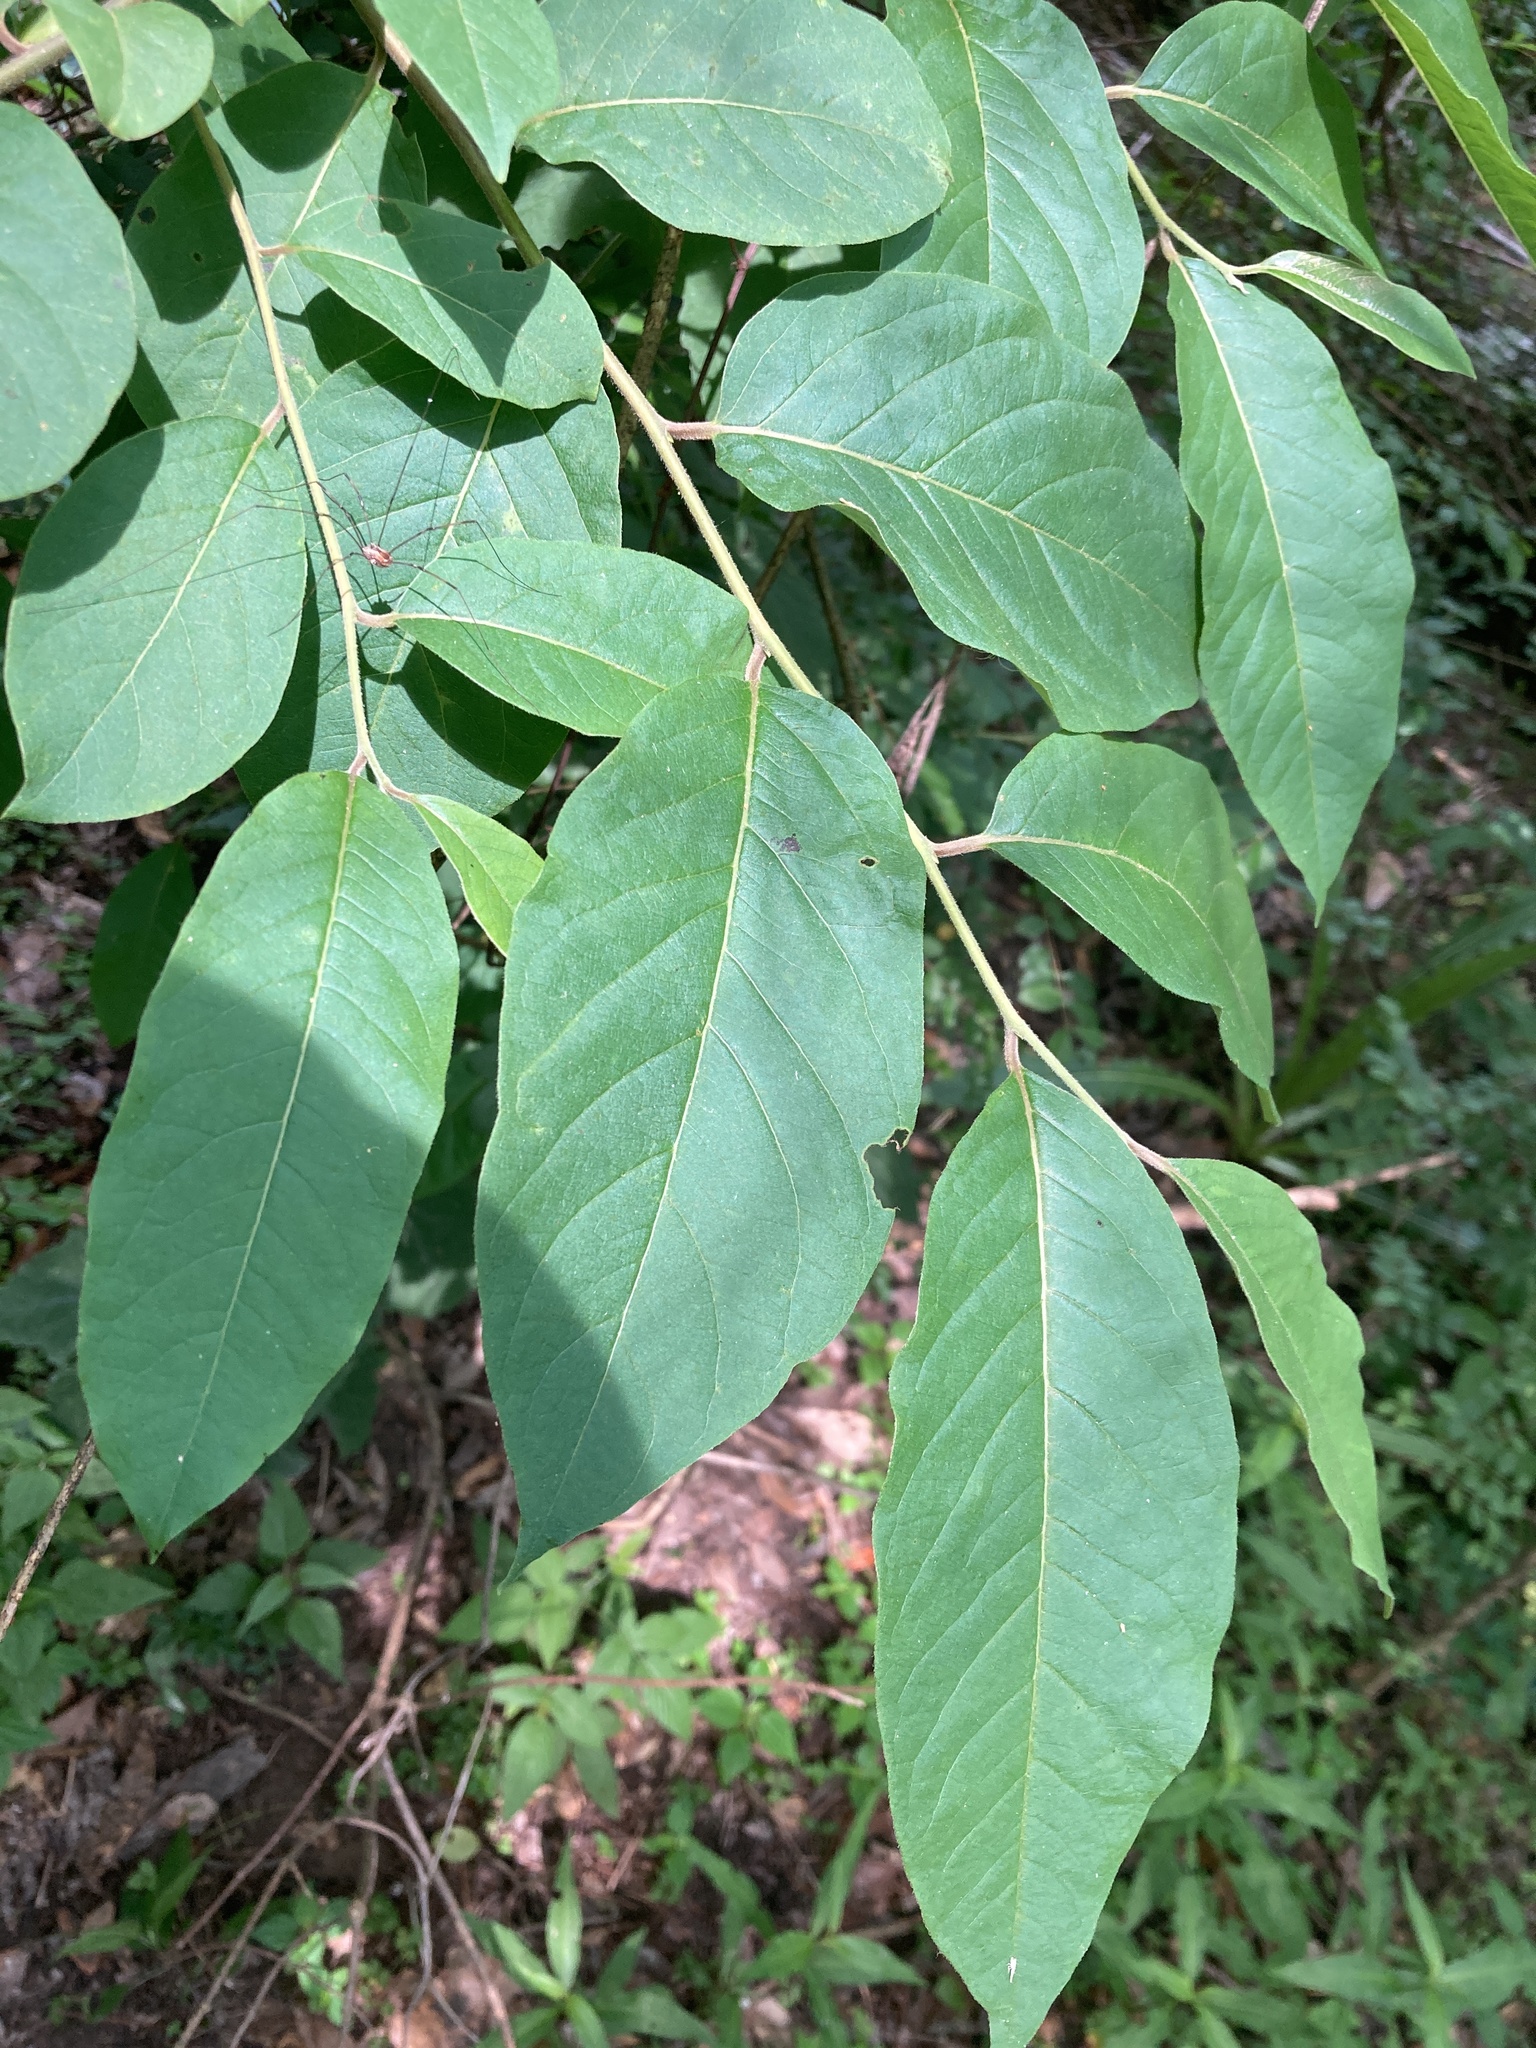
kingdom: Plantae
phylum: Tracheophyta
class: Magnoliopsida
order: Ericales
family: Ebenaceae
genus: Diospyros
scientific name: Diospyros virginiana
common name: Persimmon
